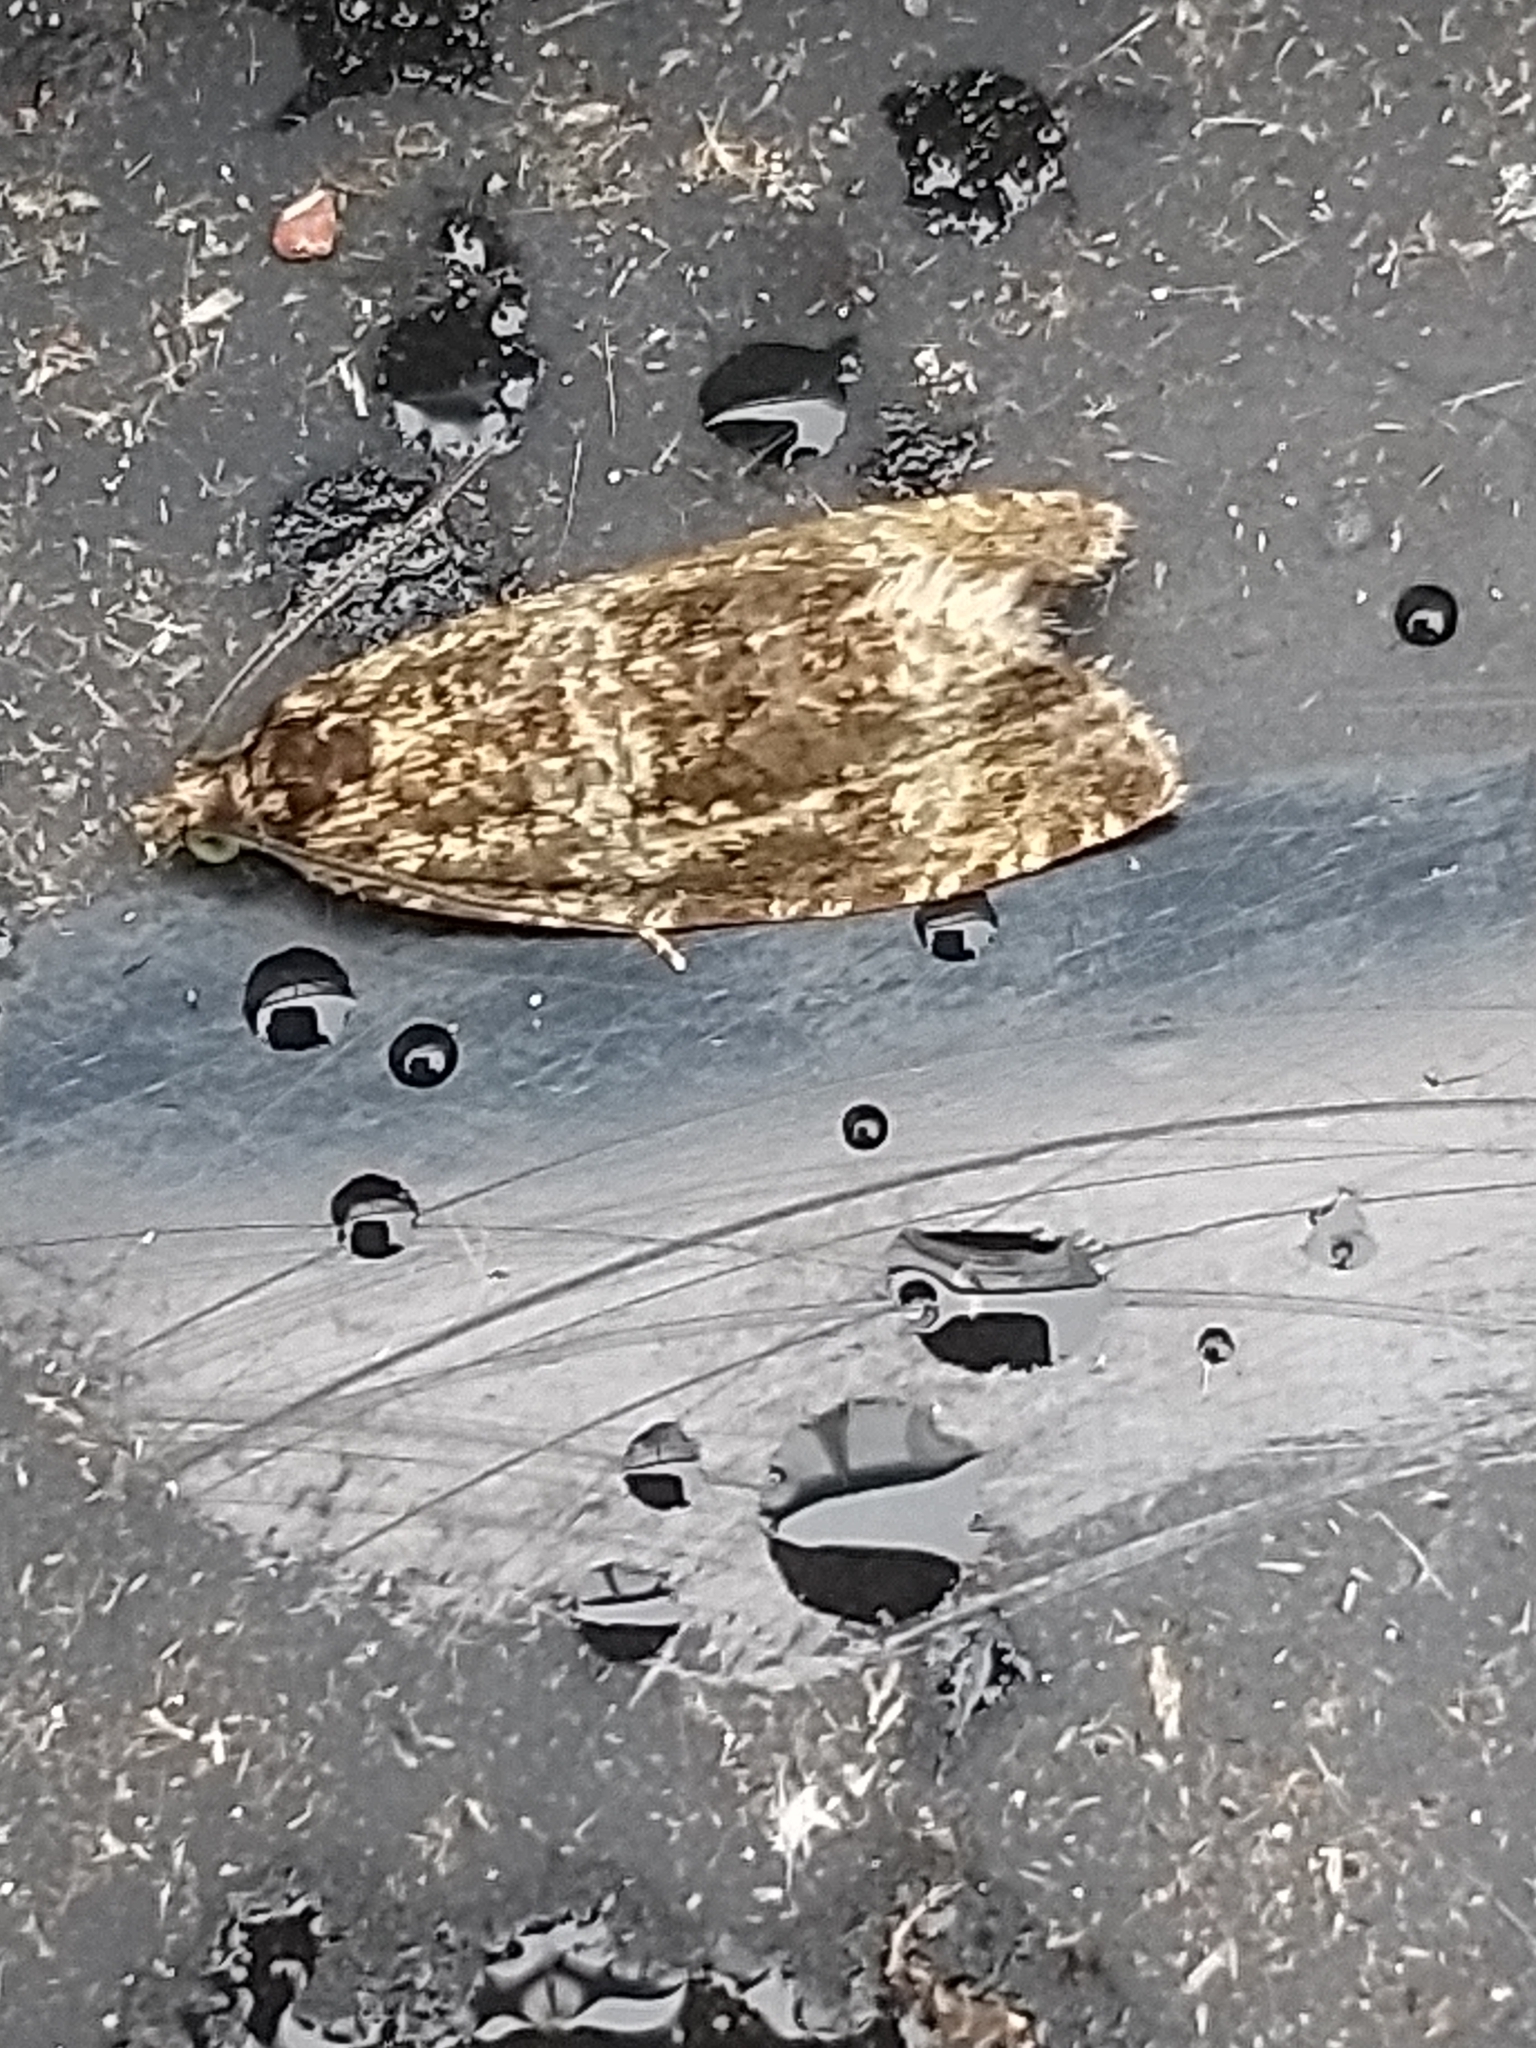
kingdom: Animalia
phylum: Arthropoda
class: Insecta
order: Lepidoptera
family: Tortricidae
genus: Syricoris
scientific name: Syricoris lacunana
